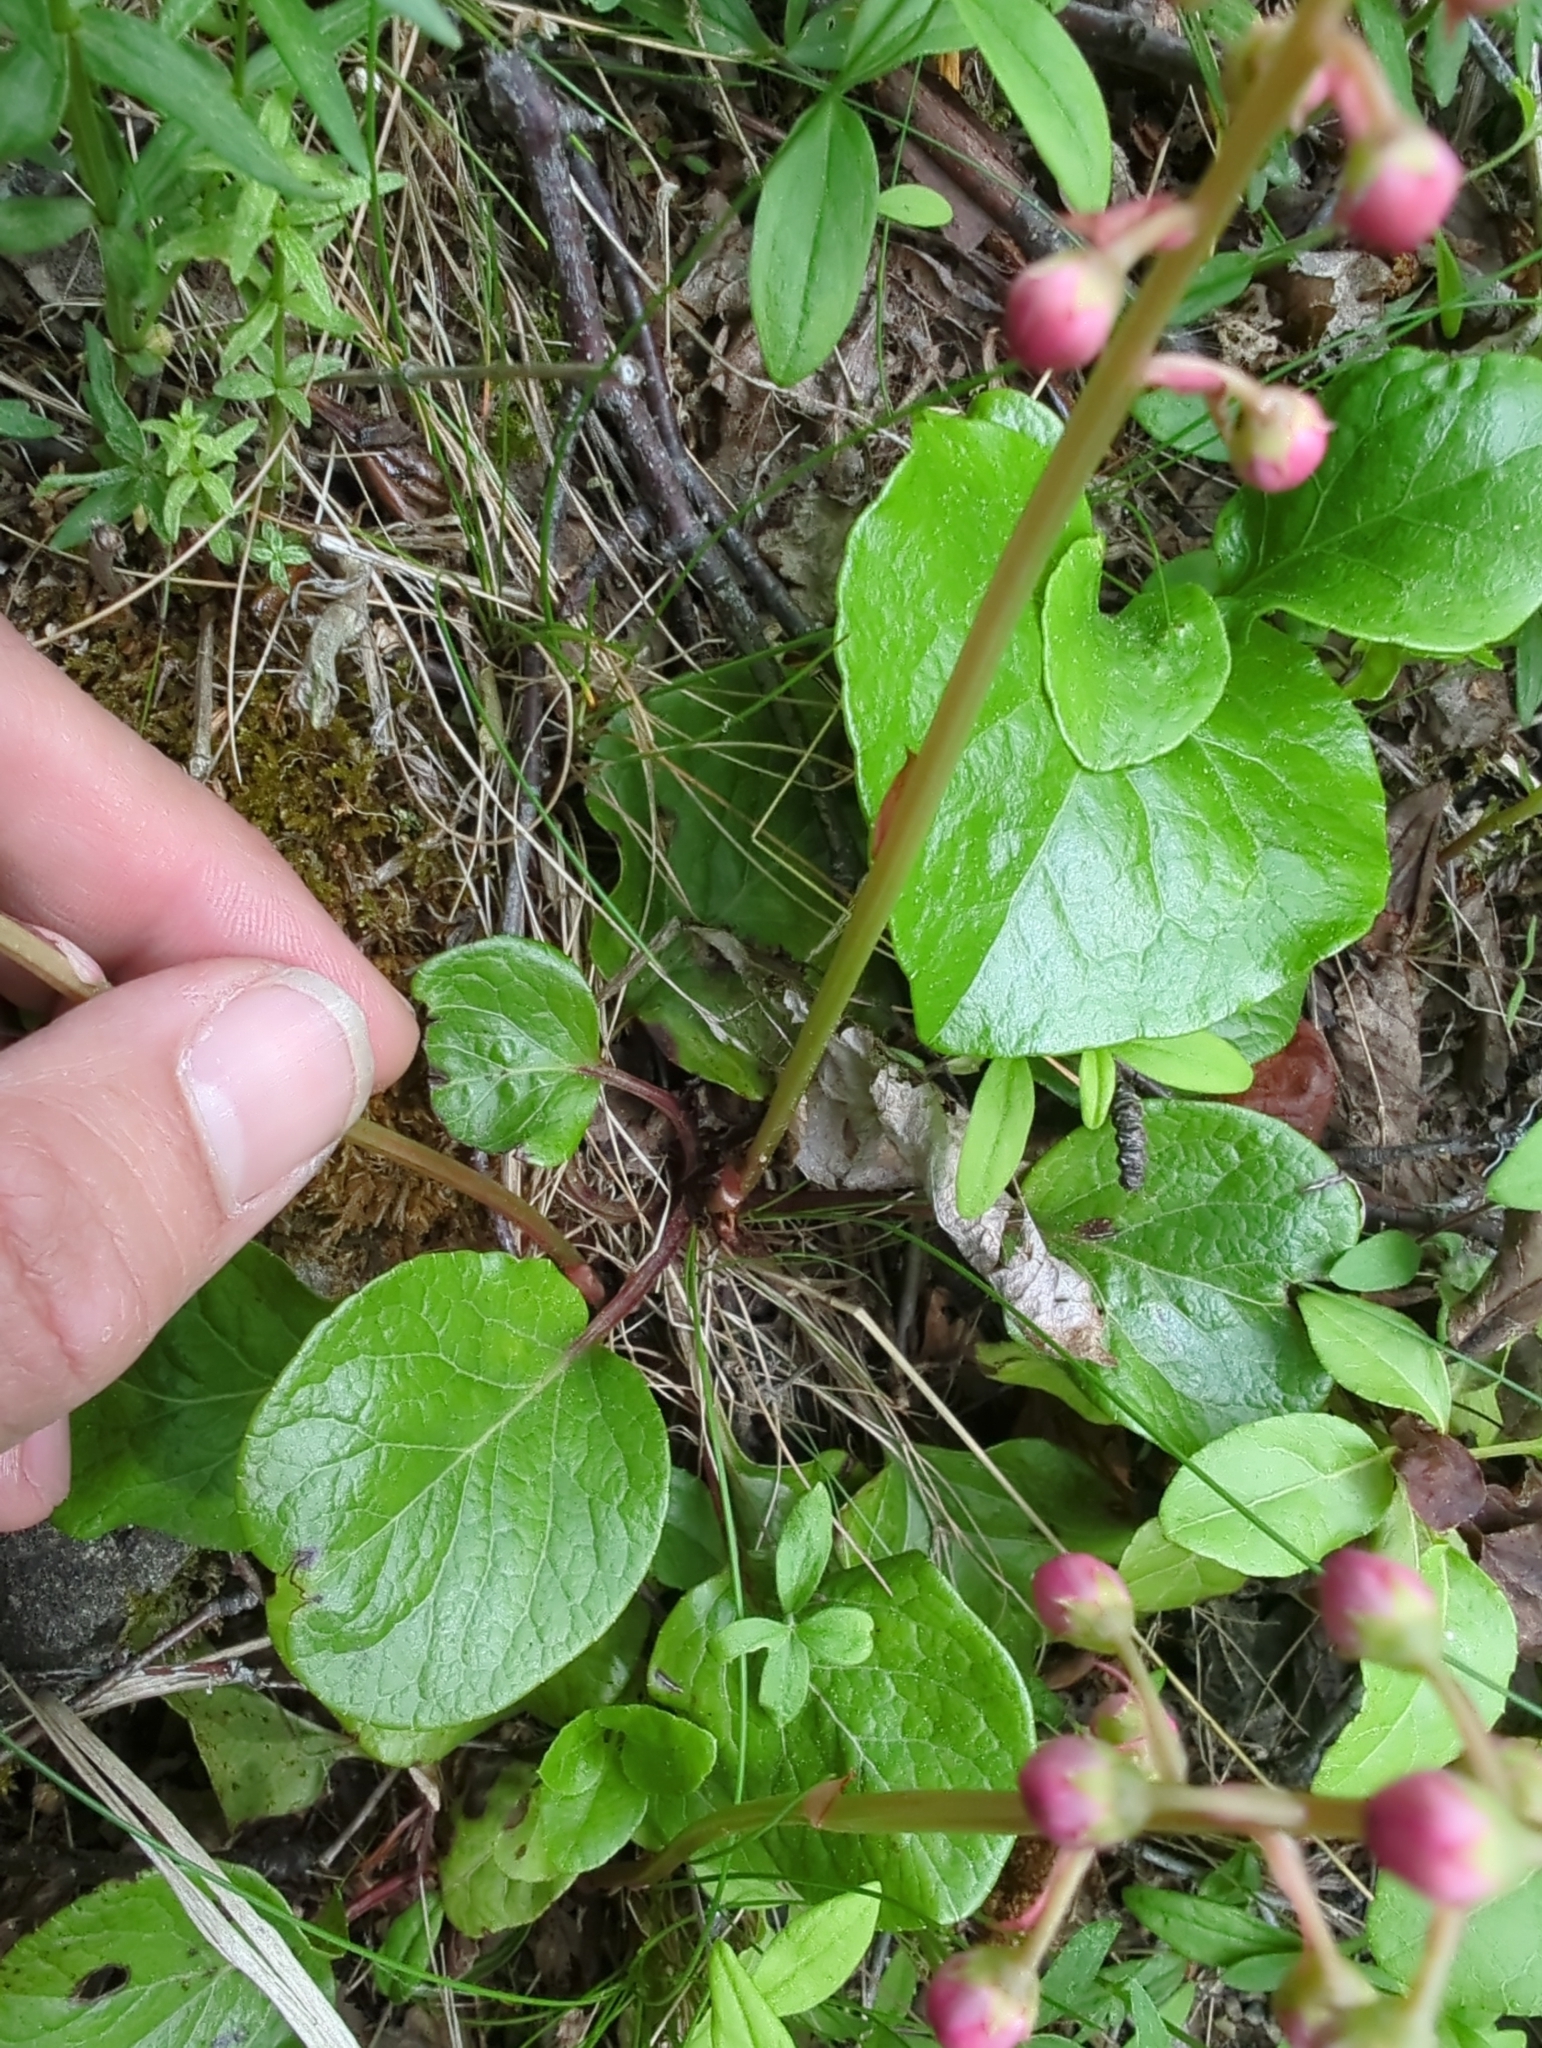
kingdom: Plantae
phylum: Tracheophyta
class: Magnoliopsida
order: Ericales
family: Ericaceae
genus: Pyrola
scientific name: Pyrola asarifolia
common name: Bog wintergreen
